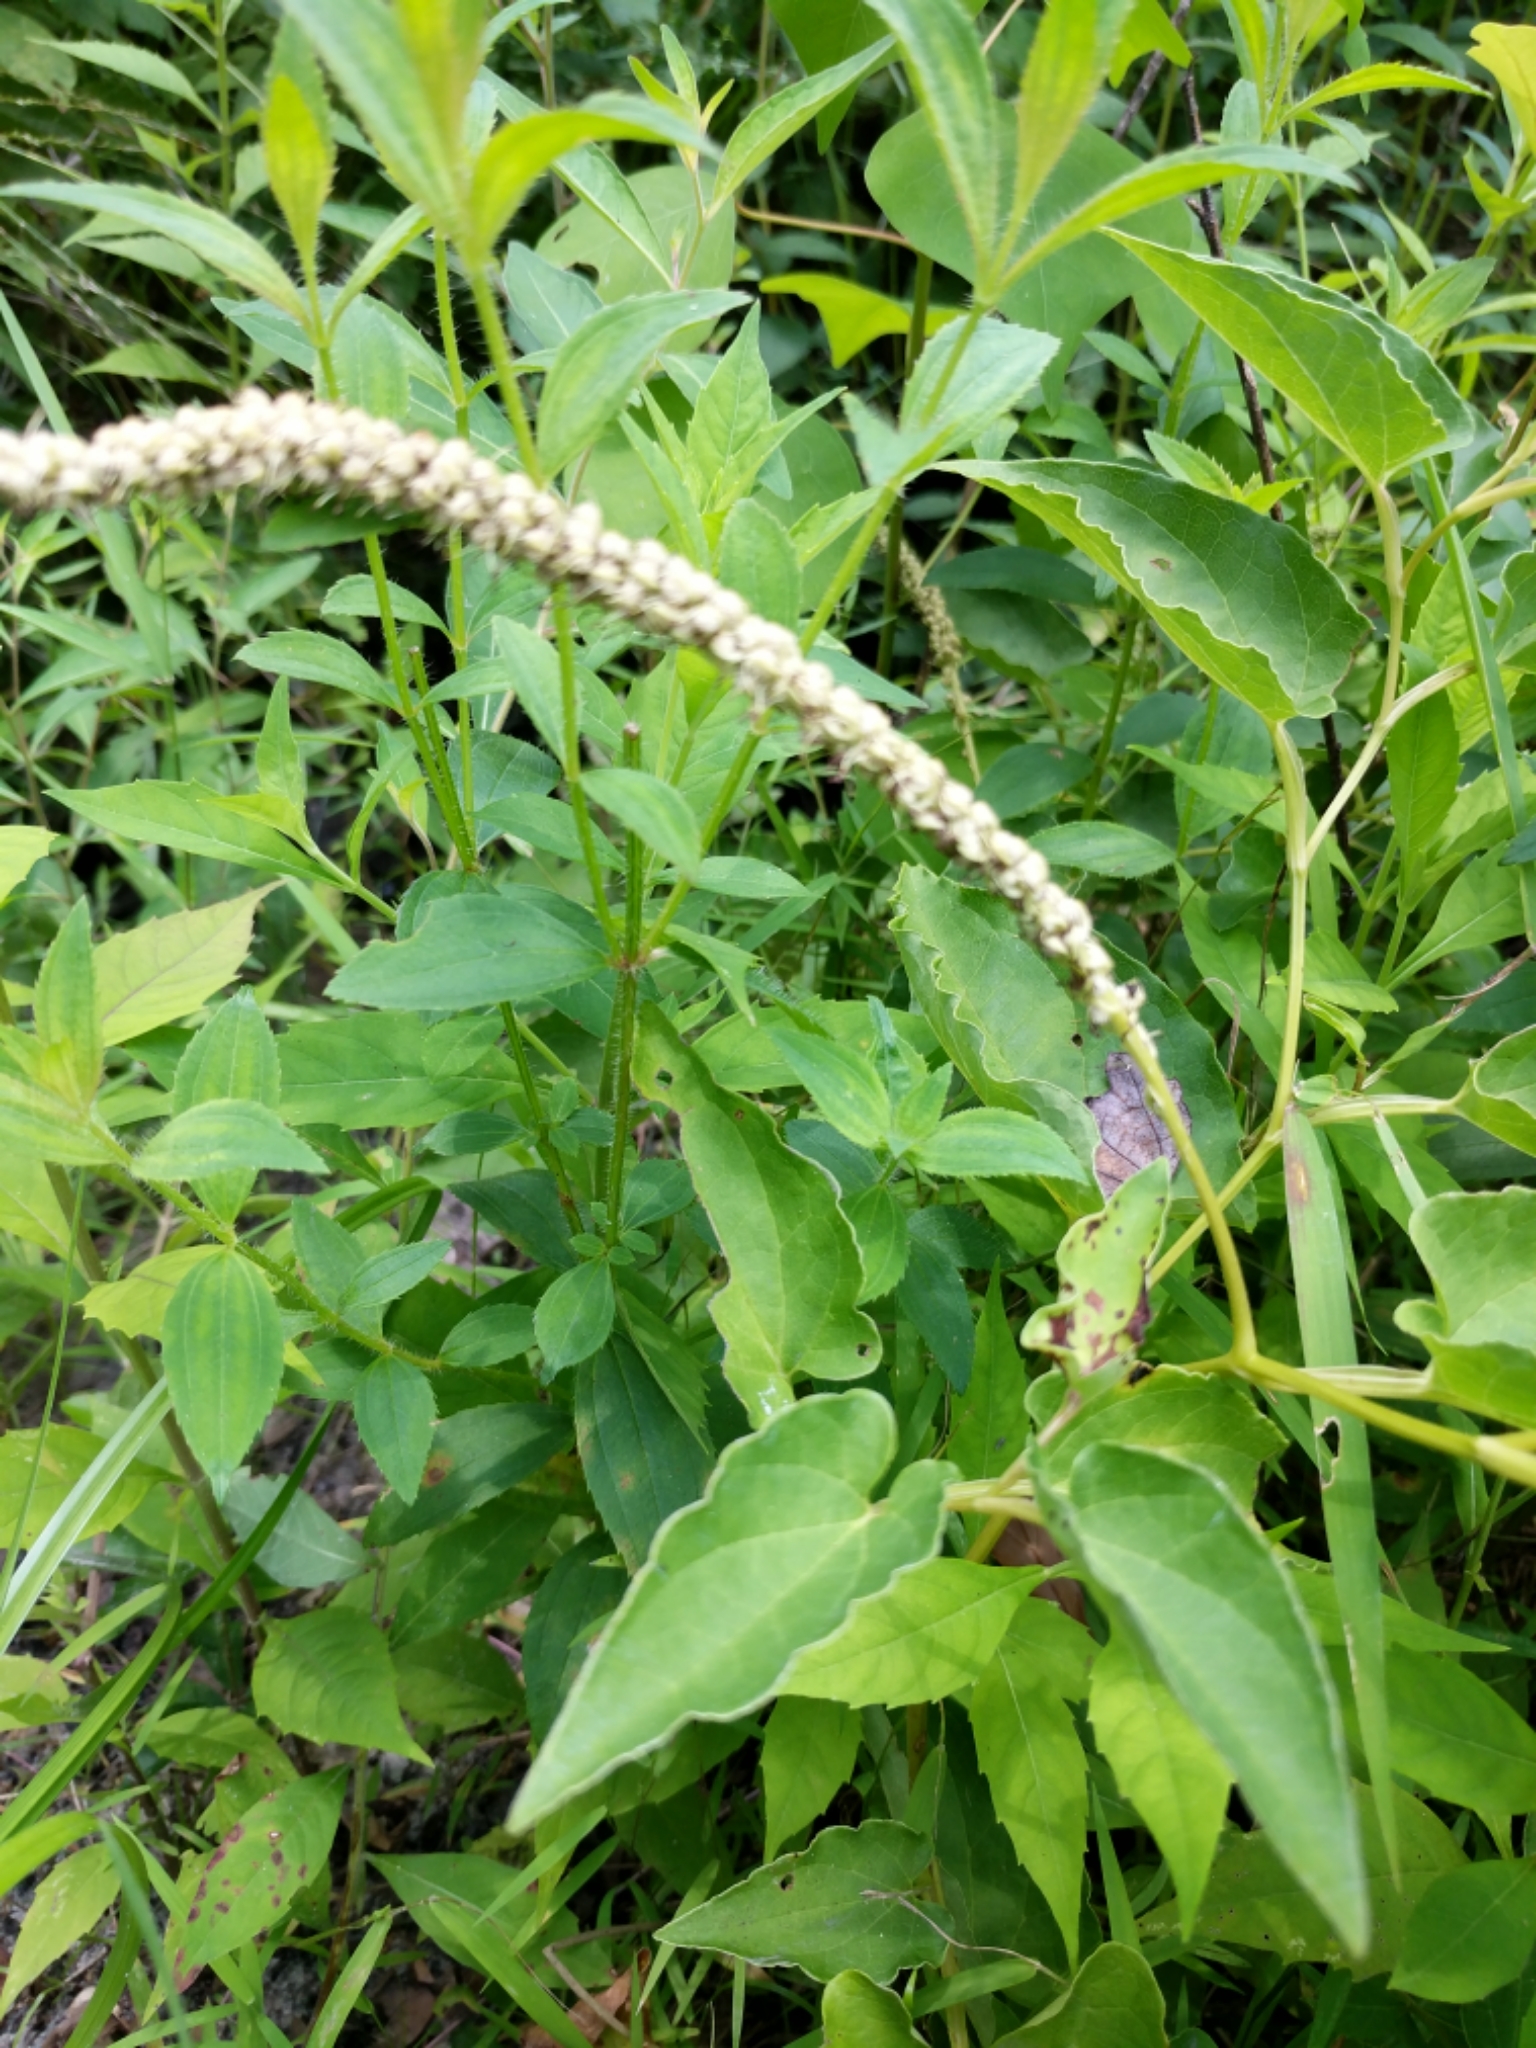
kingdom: Plantae
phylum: Tracheophyta
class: Magnoliopsida
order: Piperales
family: Saururaceae
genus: Saururus
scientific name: Saururus cernuus
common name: Lizard's-tail
